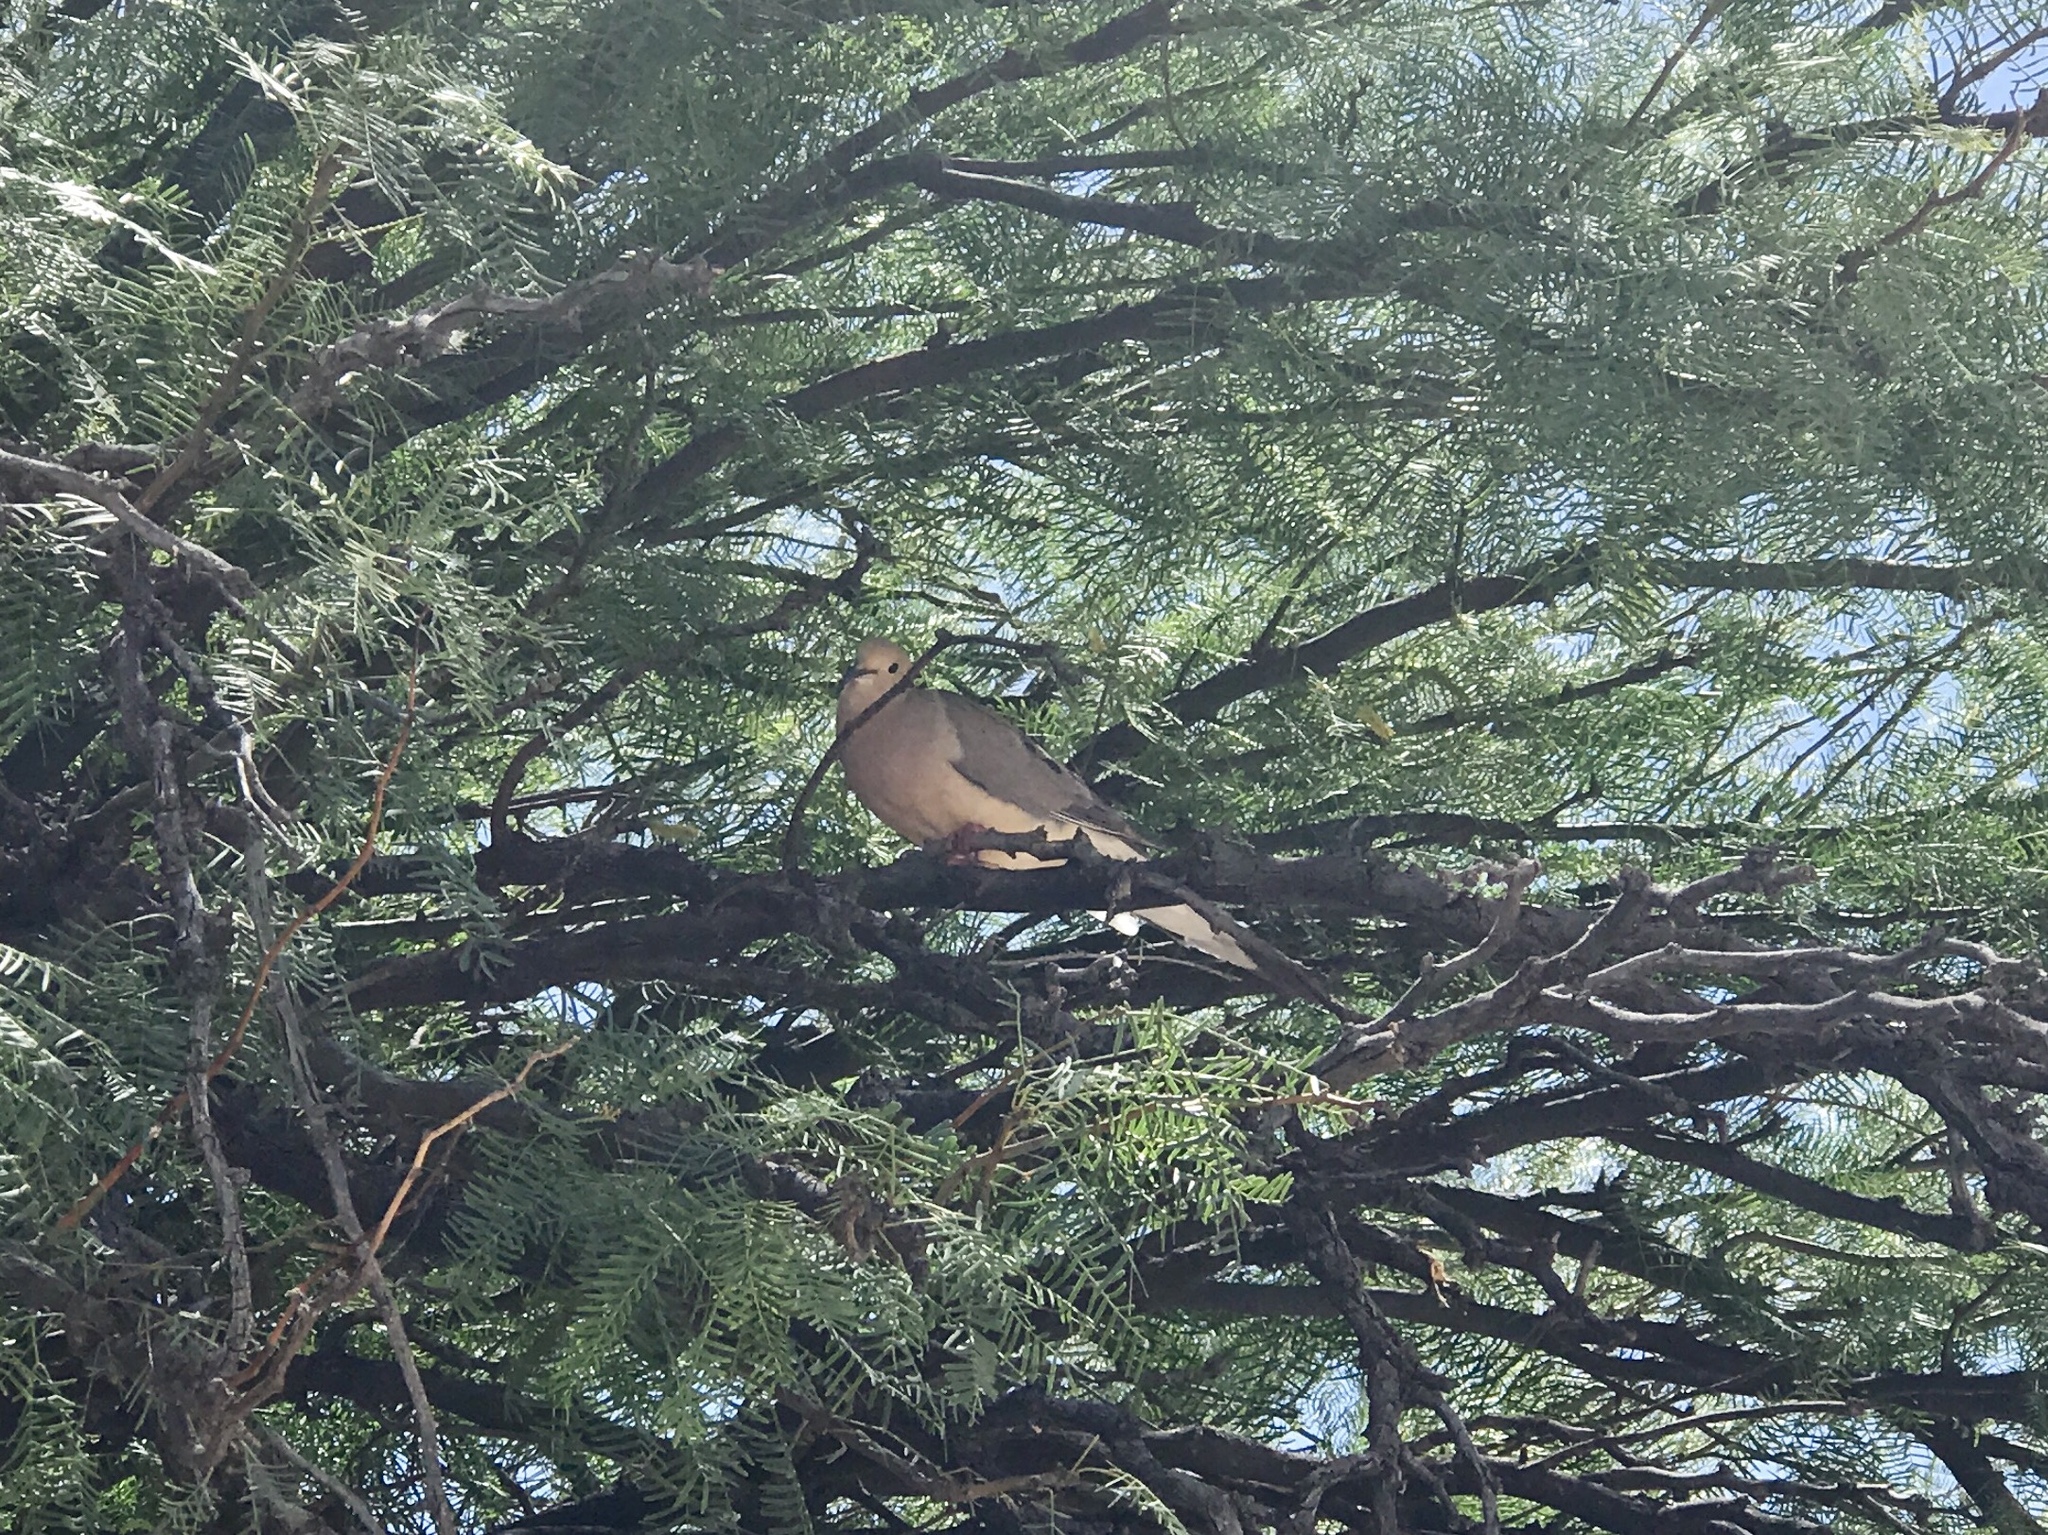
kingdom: Animalia
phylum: Chordata
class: Aves
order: Columbiformes
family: Columbidae
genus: Zenaida
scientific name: Zenaida macroura
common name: Mourning dove
